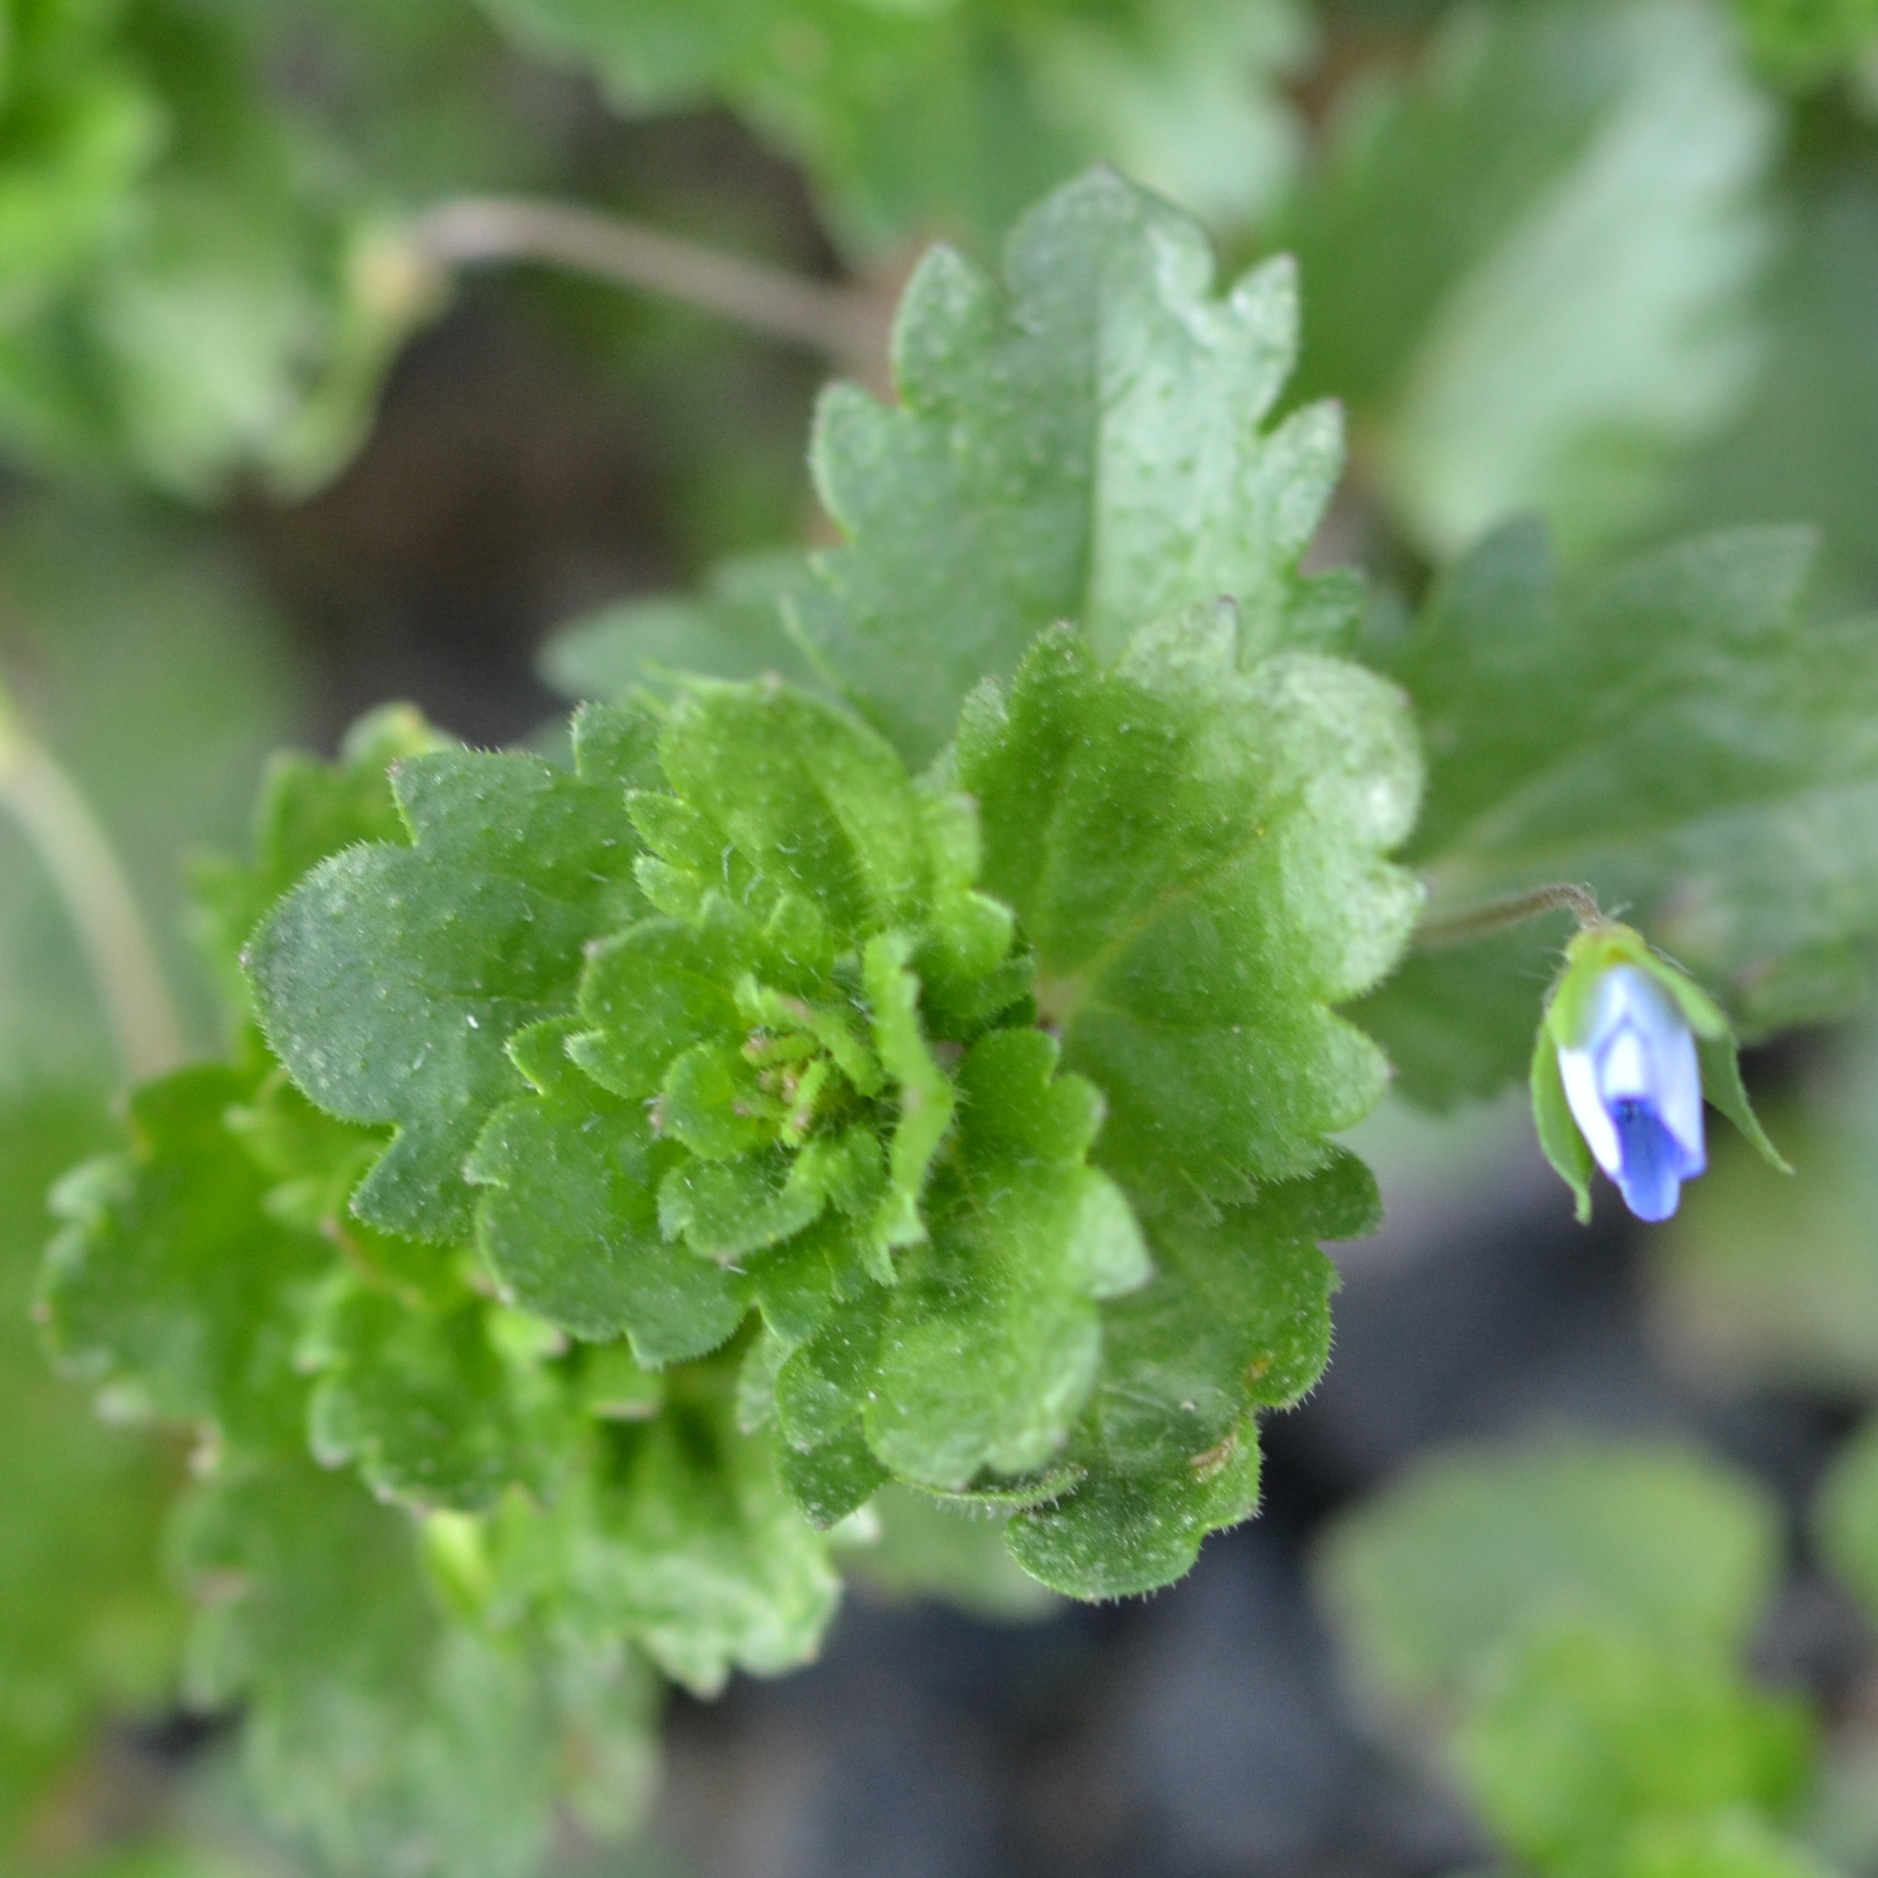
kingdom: Plantae
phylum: Tracheophyta
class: Magnoliopsida
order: Lamiales
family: Plantaginaceae
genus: Veronica
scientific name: Veronica persica
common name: Common field-speedwell
